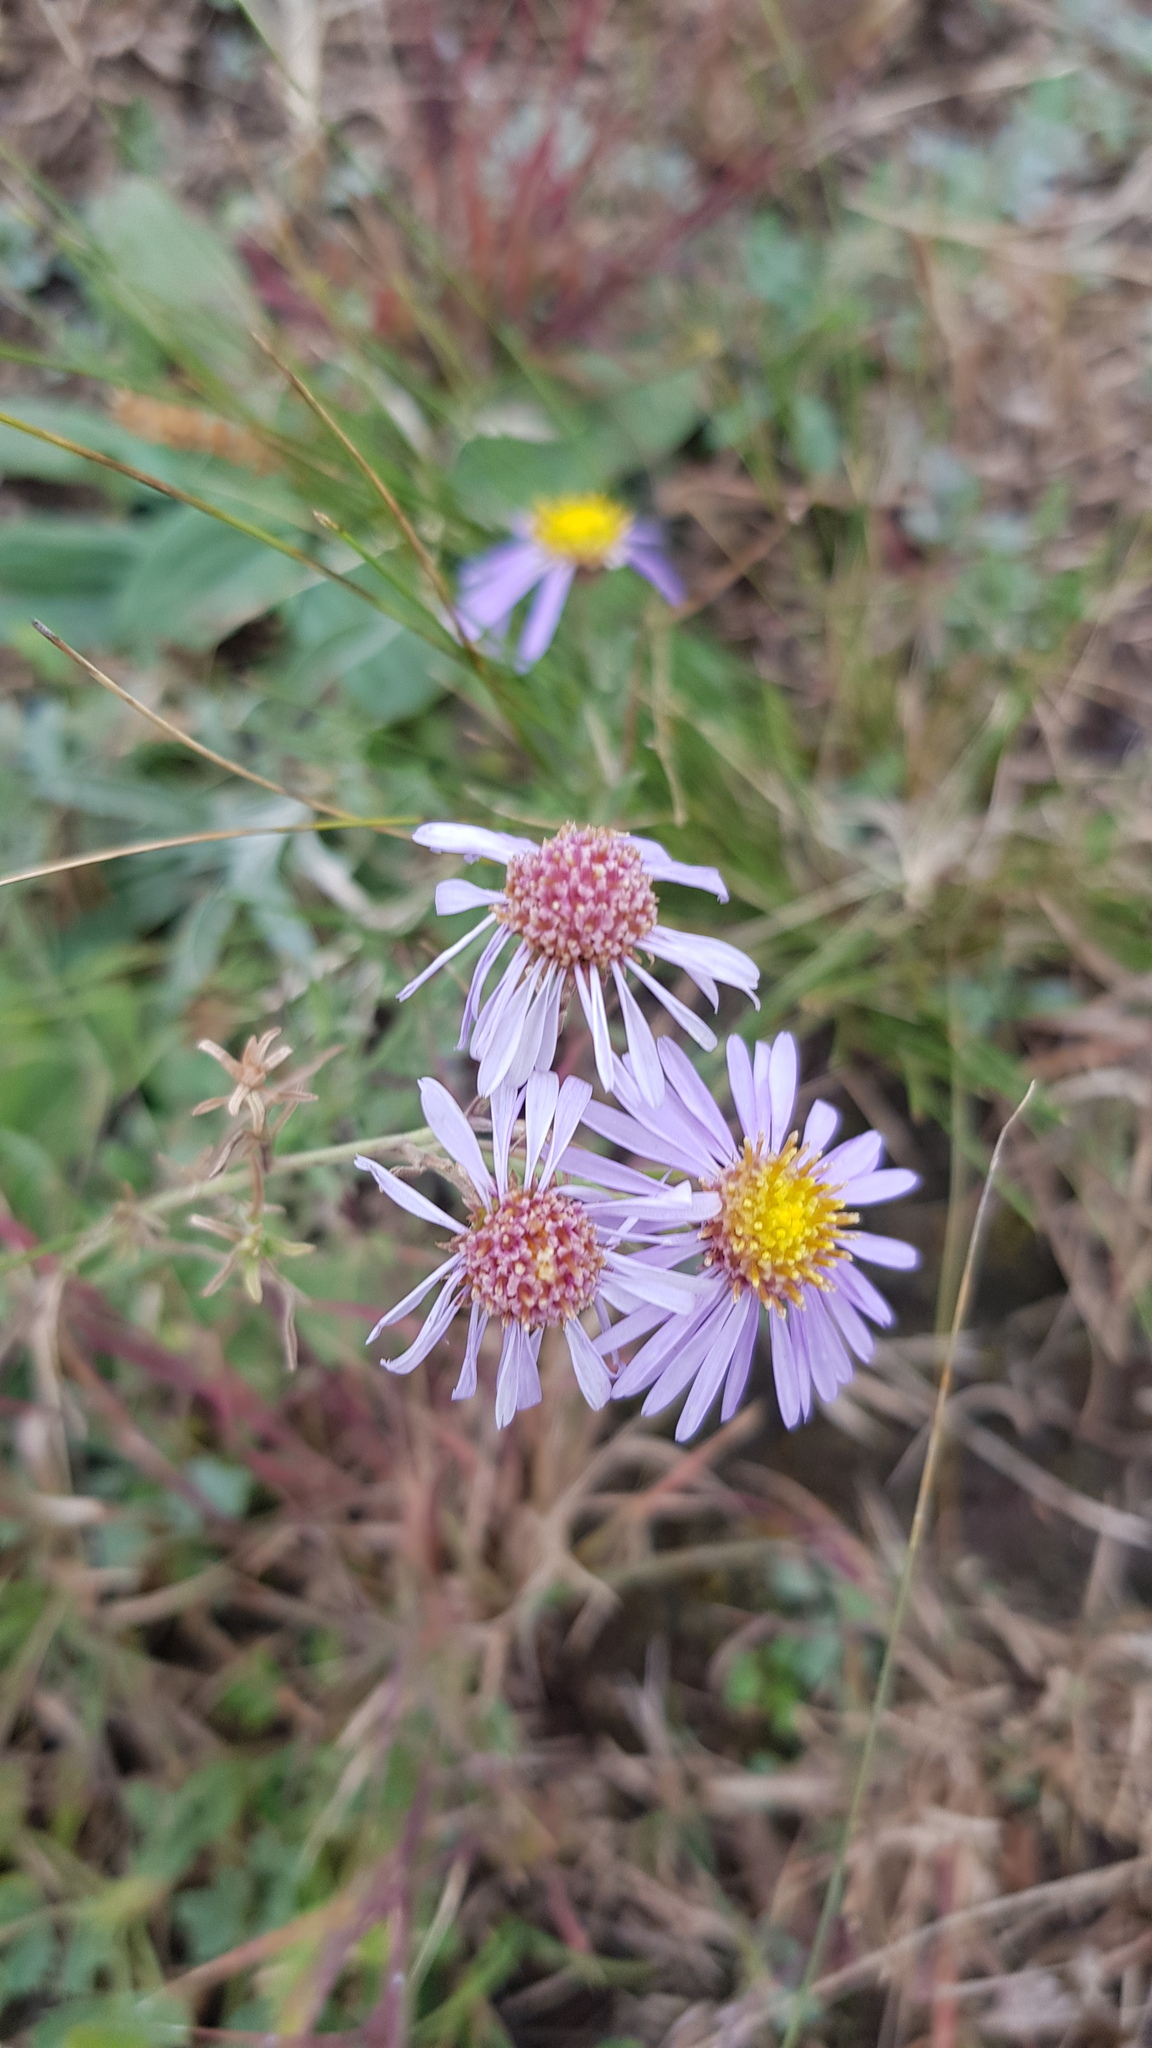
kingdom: Plantae
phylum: Tracheophyta
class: Magnoliopsida
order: Asterales
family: Asteraceae
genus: Heteropappus
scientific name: Heteropappus altaicus
